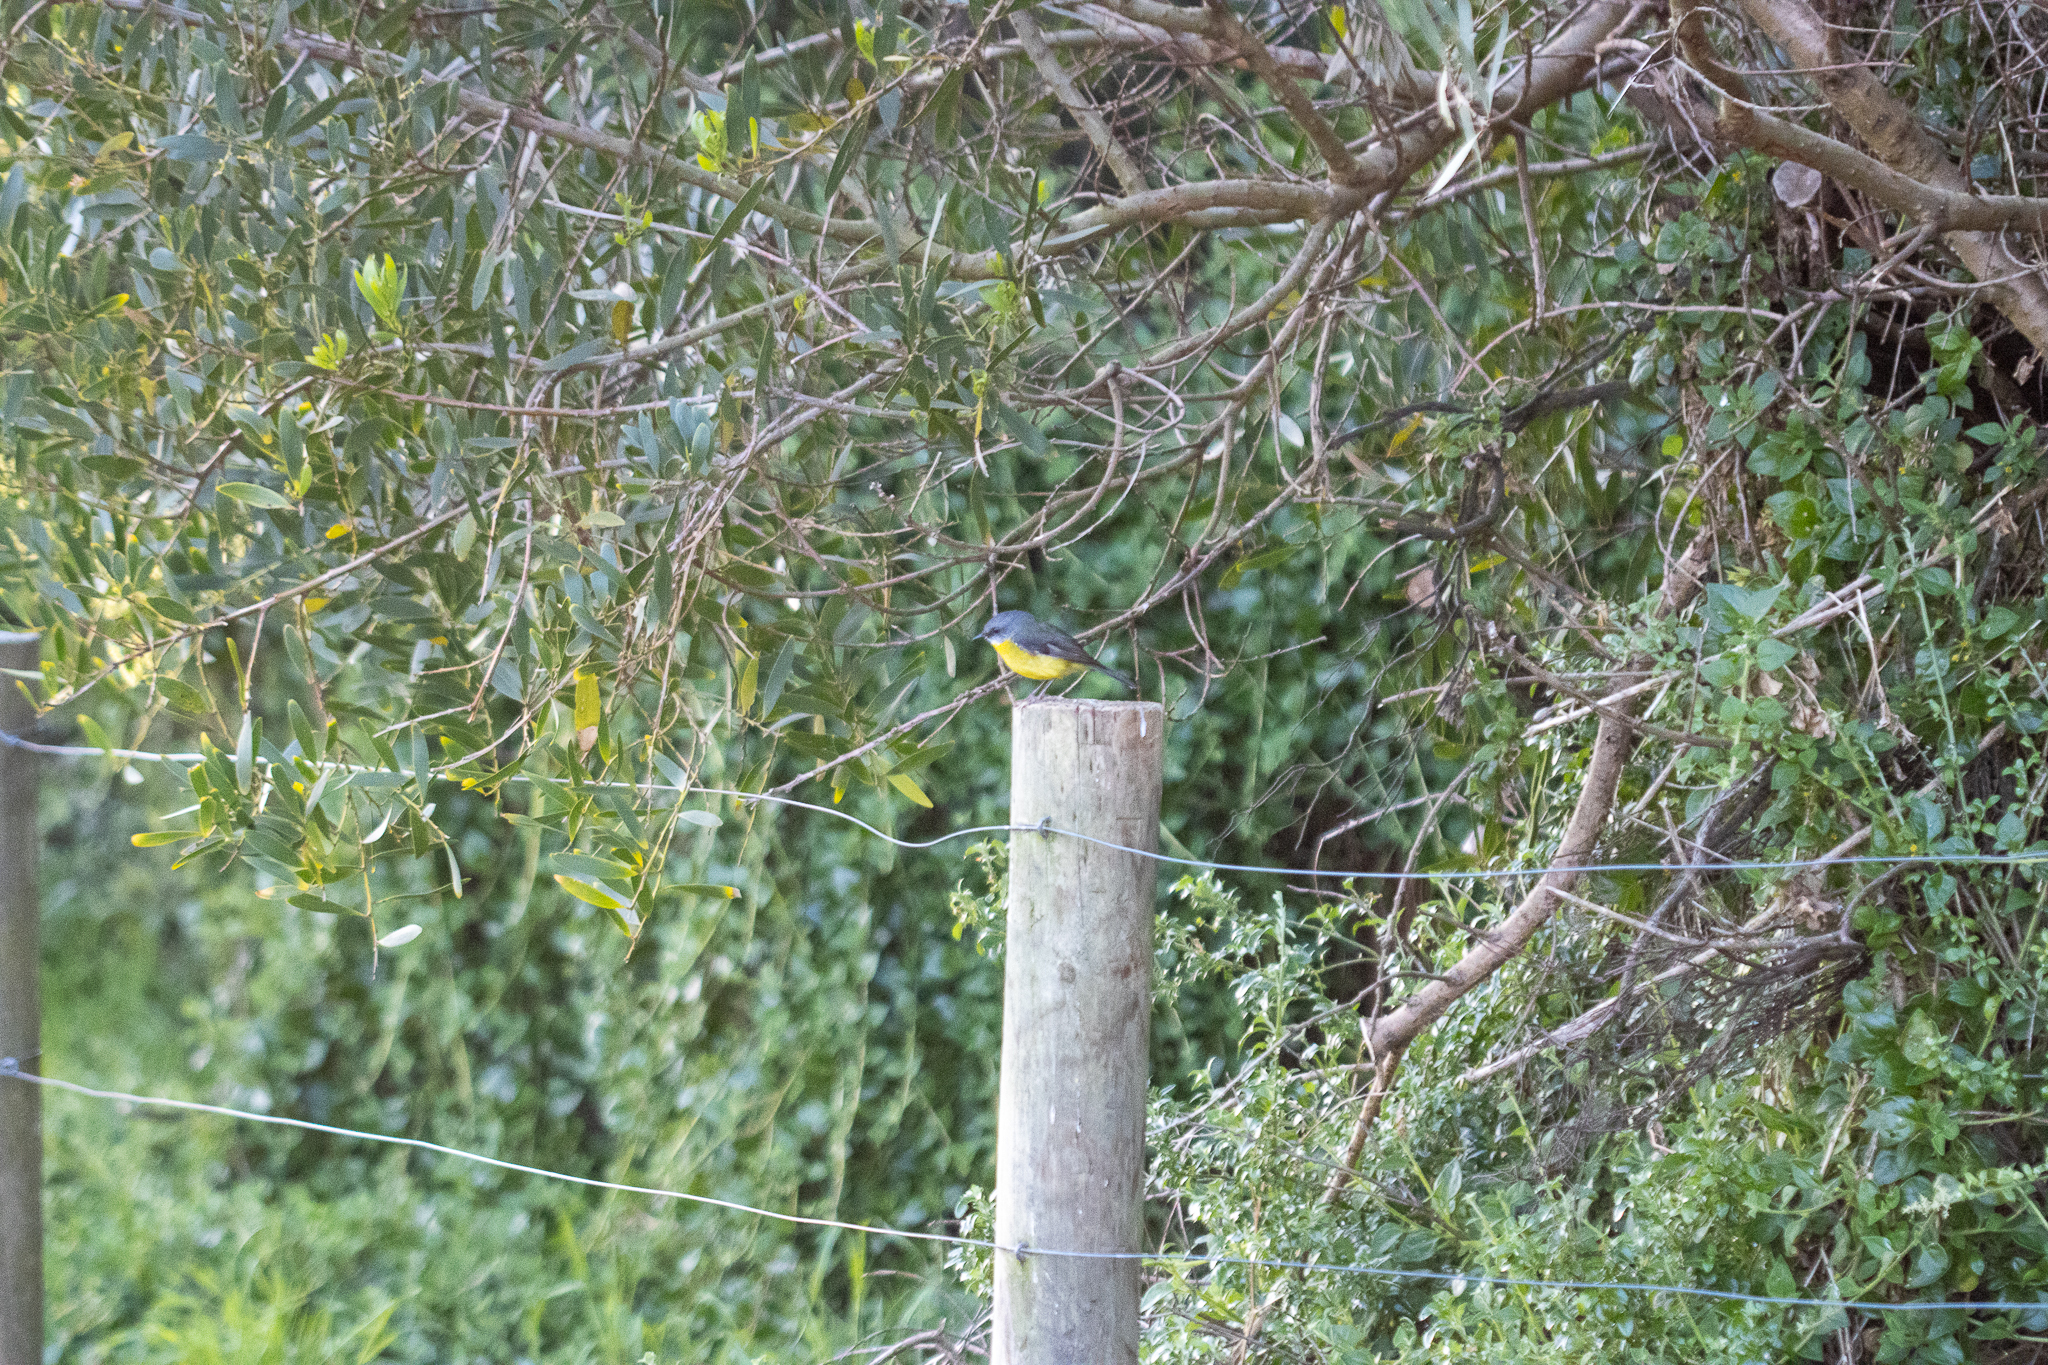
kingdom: Animalia
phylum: Chordata
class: Aves
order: Passeriformes
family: Petroicidae
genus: Eopsaltria
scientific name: Eopsaltria australis
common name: Eastern yellow robin
